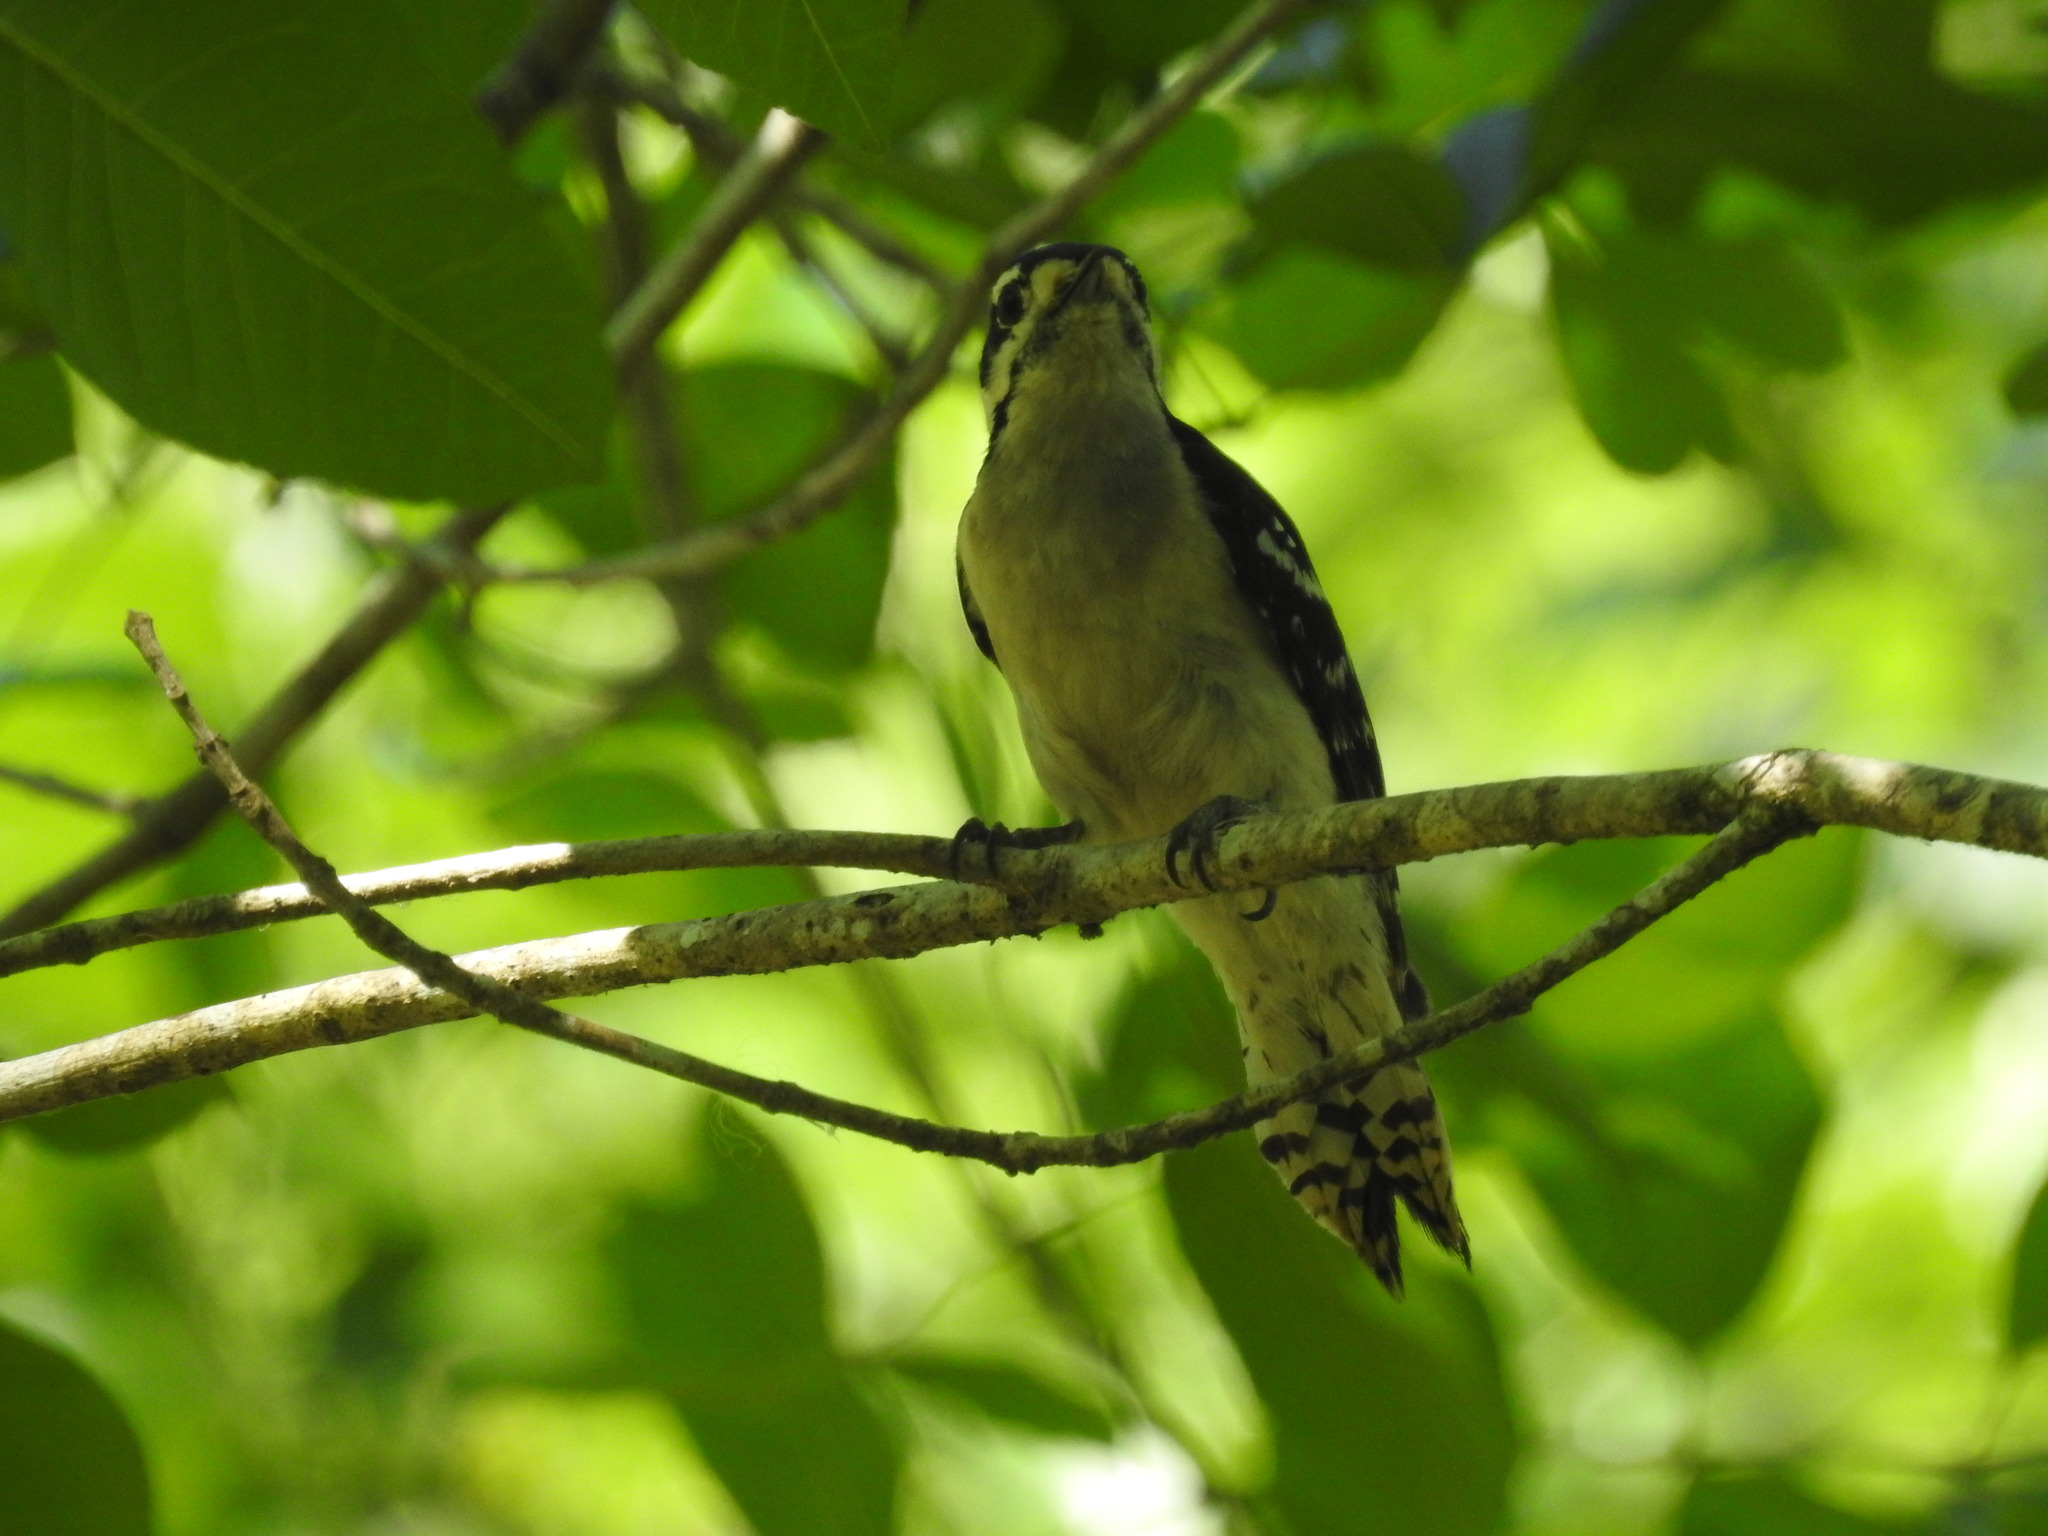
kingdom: Animalia
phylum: Chordata
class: Aves
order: Piciformes
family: Picidae
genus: Dryobates
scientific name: Dryobates pubescens
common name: Downy woodpecker
